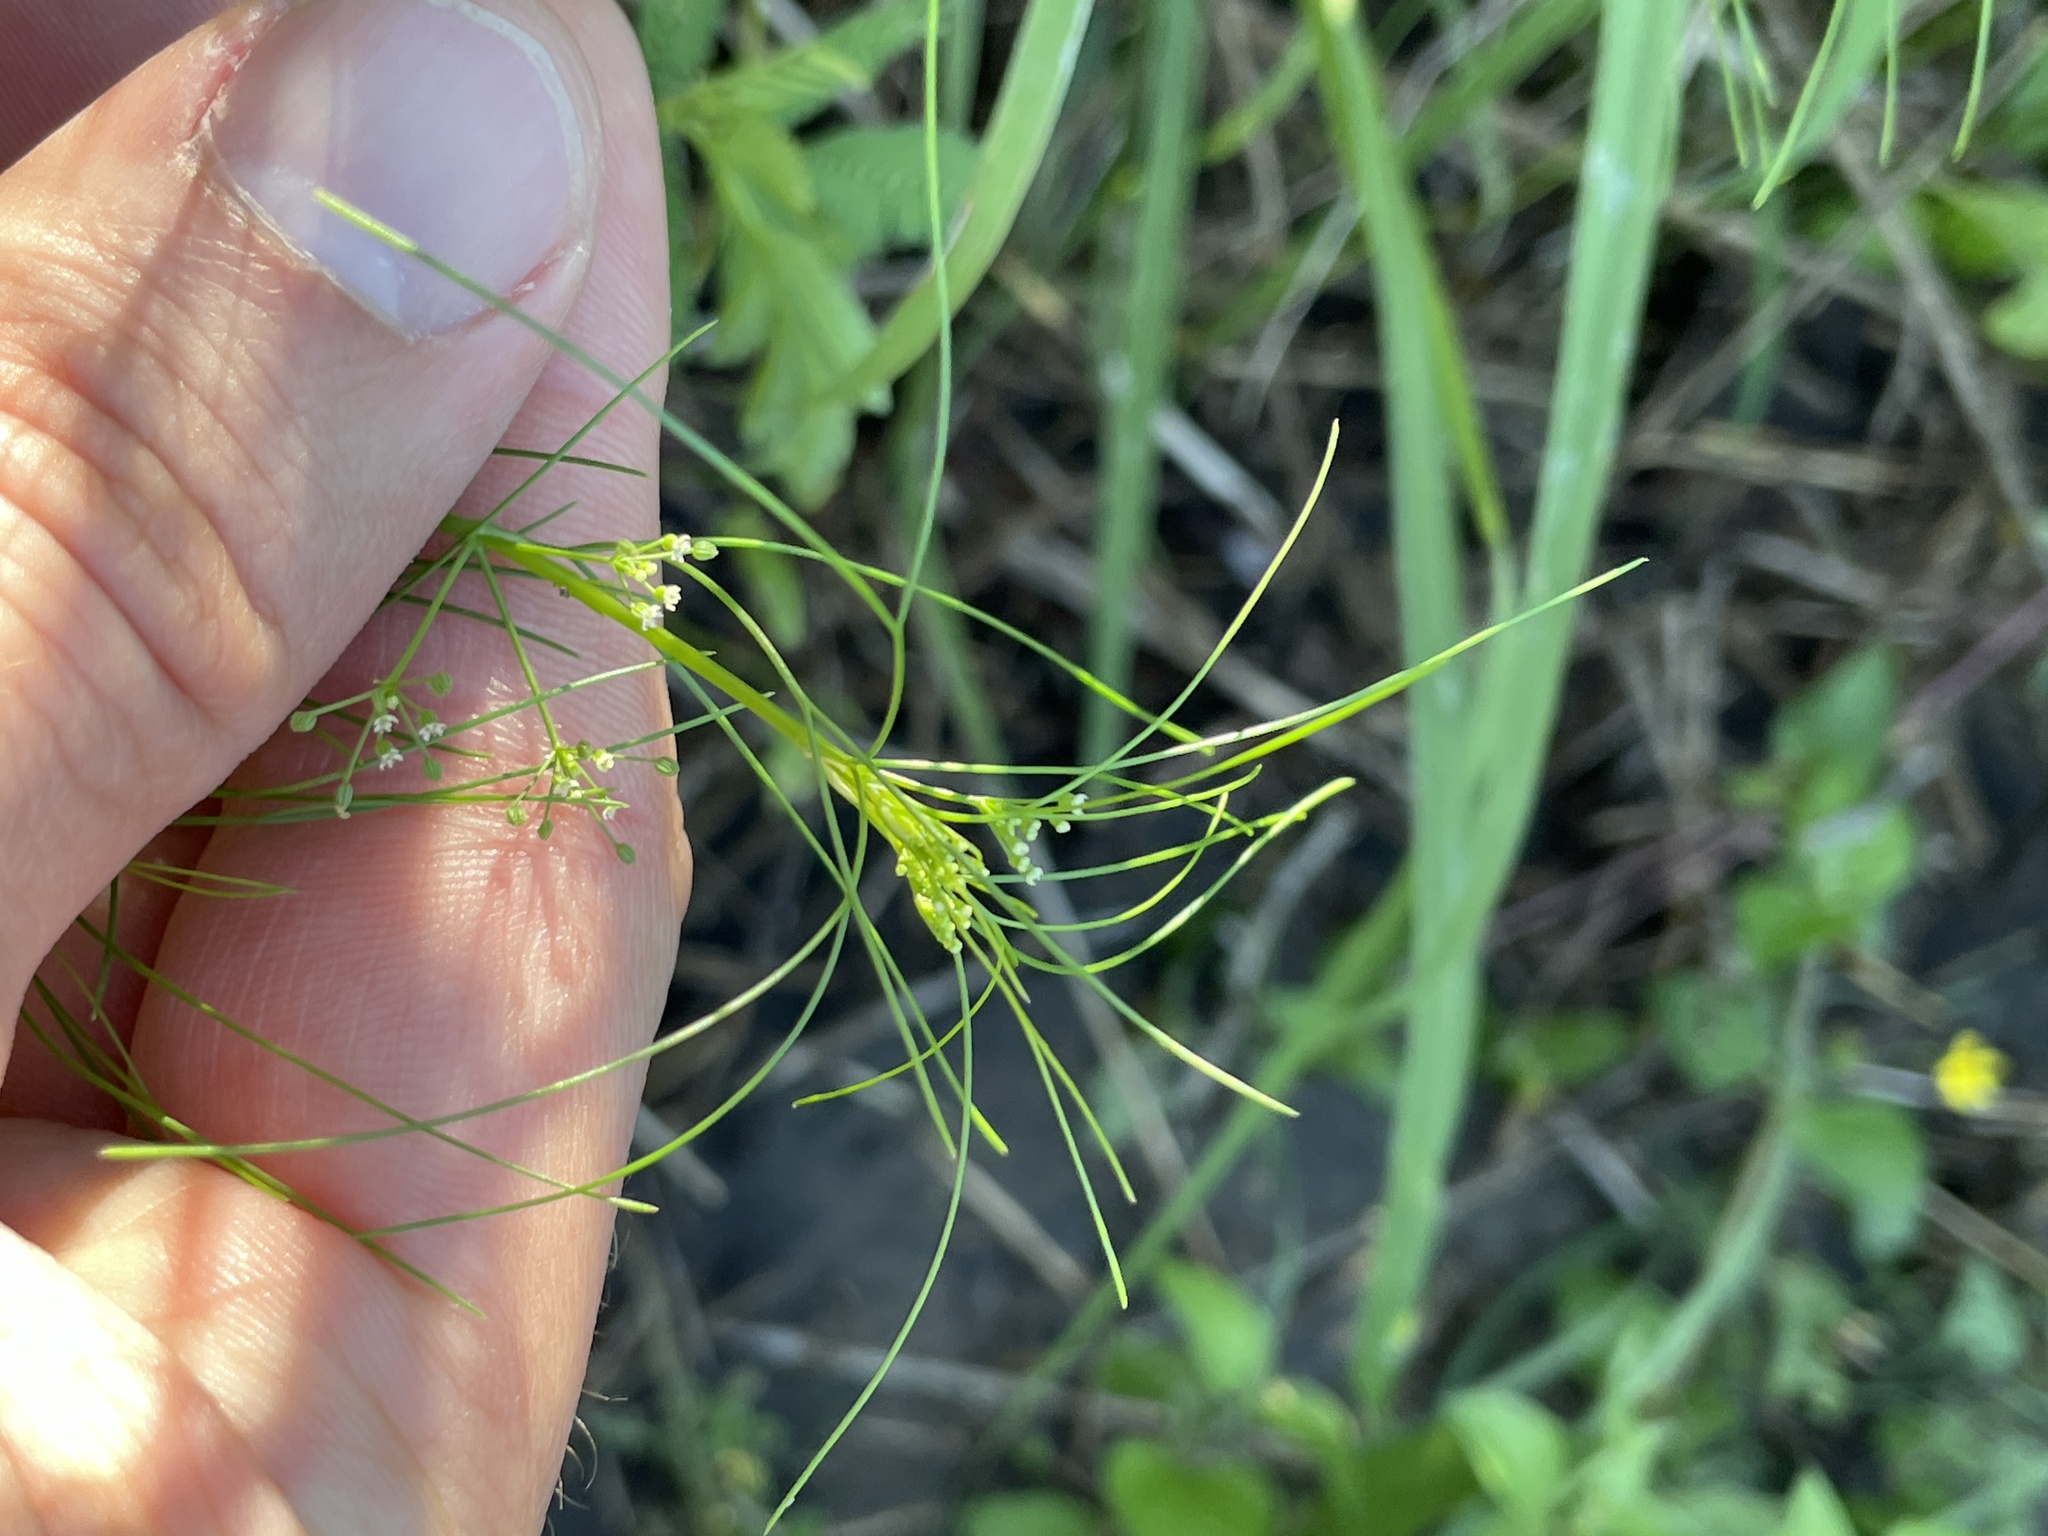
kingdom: Plantae
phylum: Tracheophyta
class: Magnoliopsida
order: Apiales
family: Apiaceae
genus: Cyclospermum
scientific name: Cyclospermum leptophyllum
